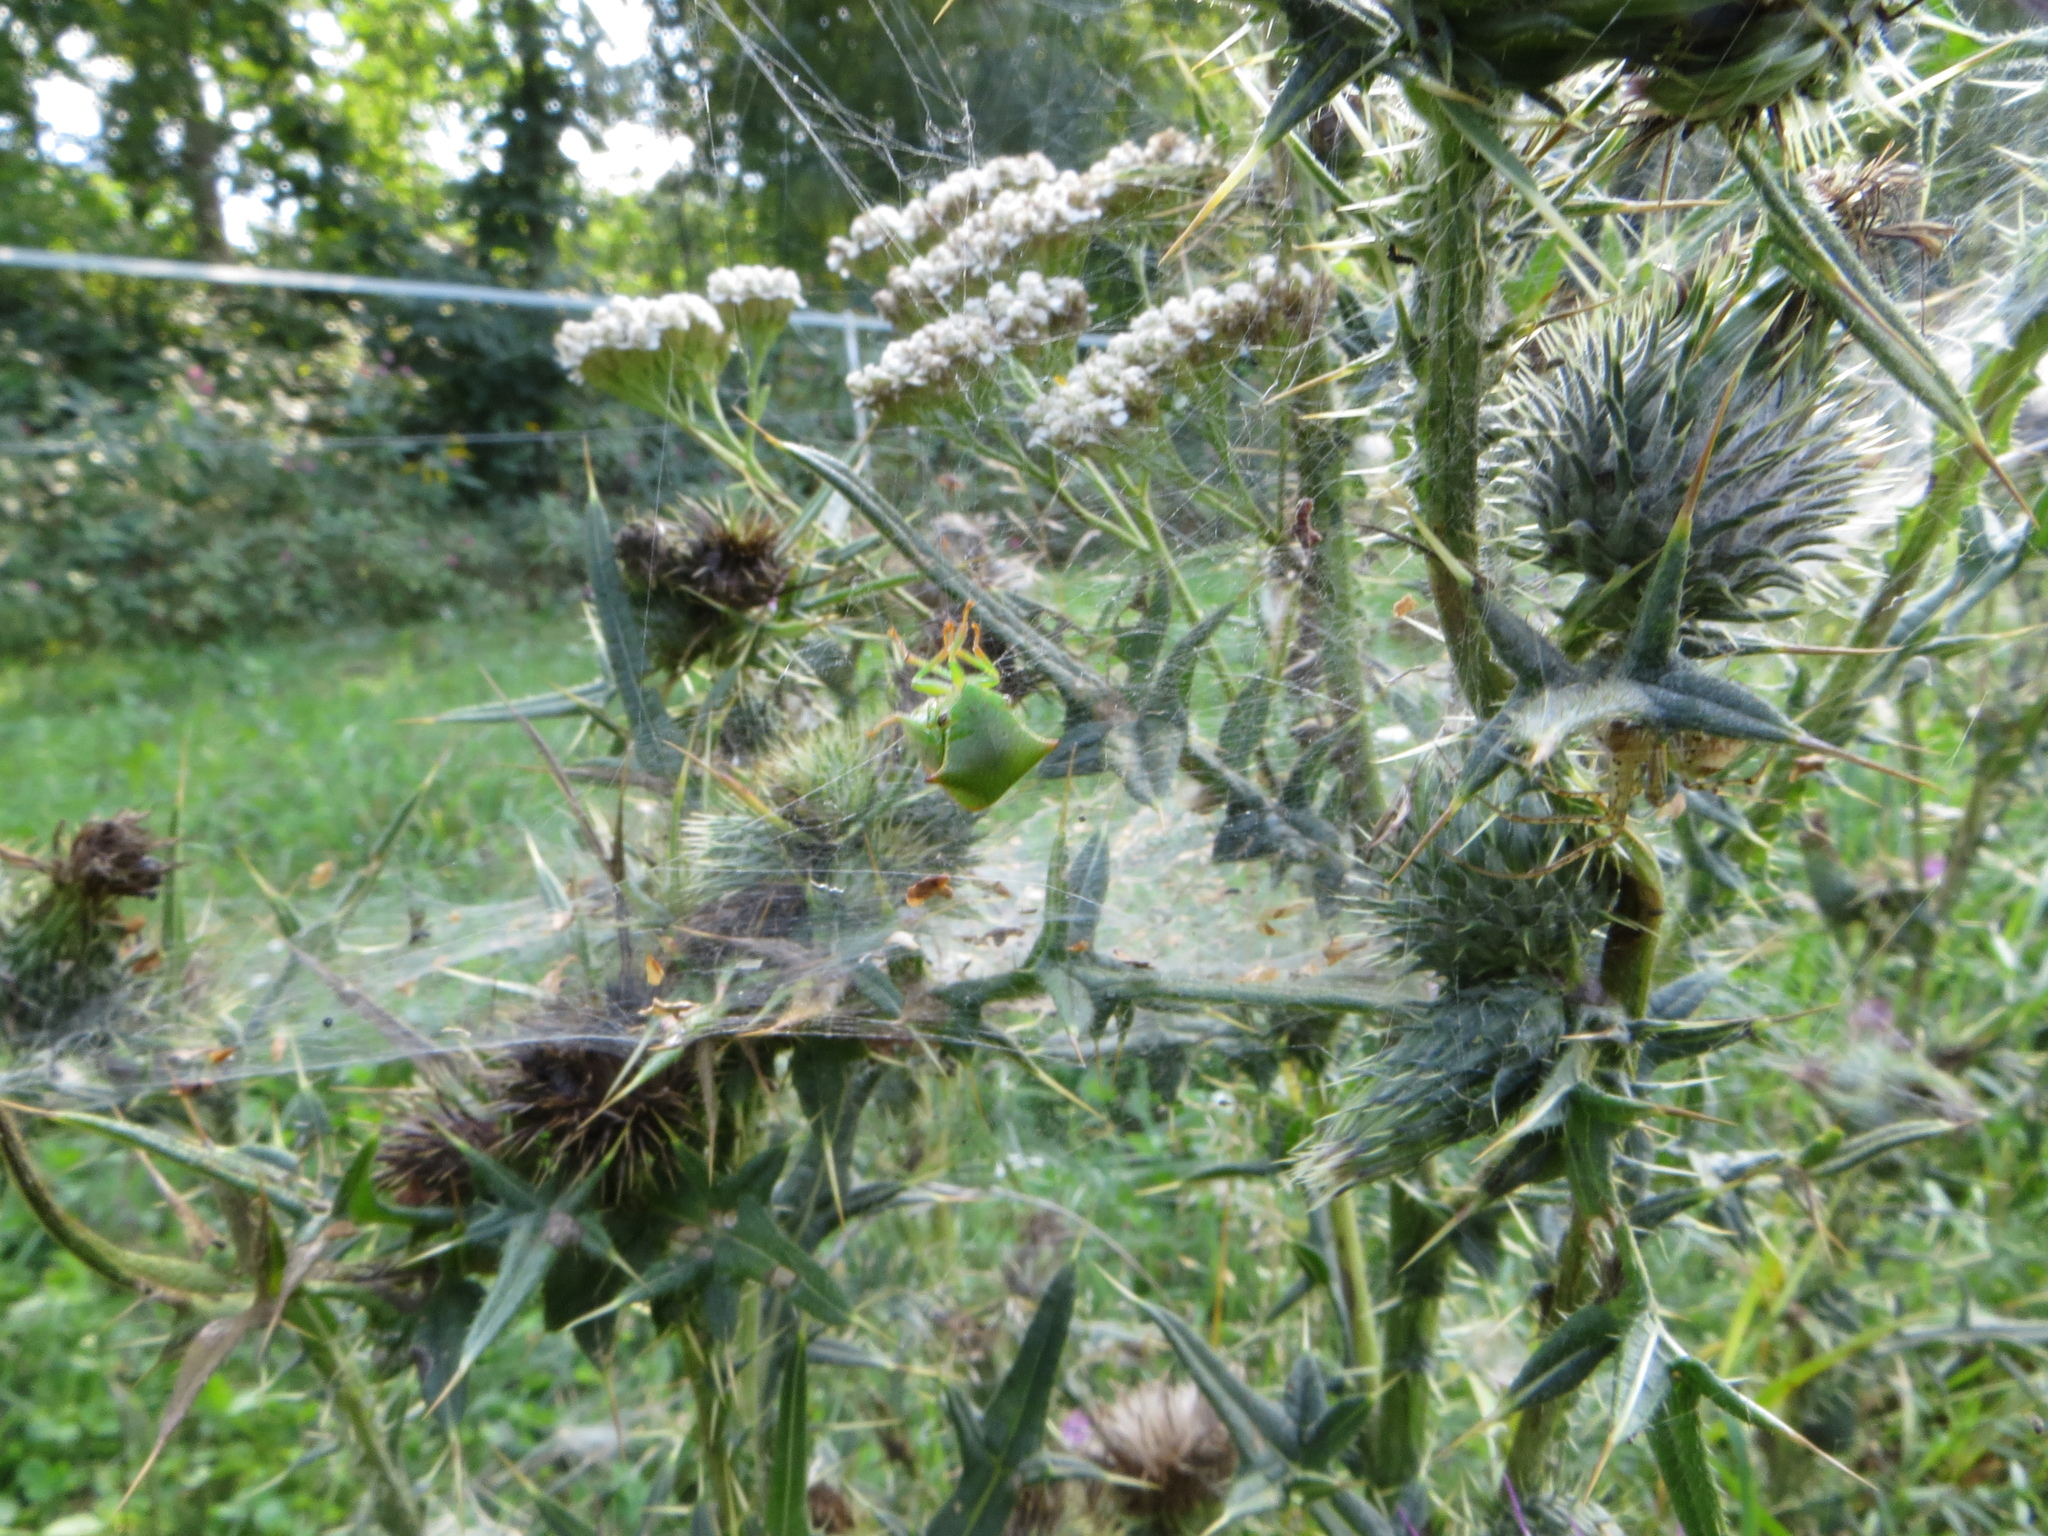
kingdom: Animalia
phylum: Arthropoda
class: Insecta
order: Hemiptera
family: Membracidae
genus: Stictocephala
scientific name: Stictocephala bisonia
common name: American buffalo treehopper
